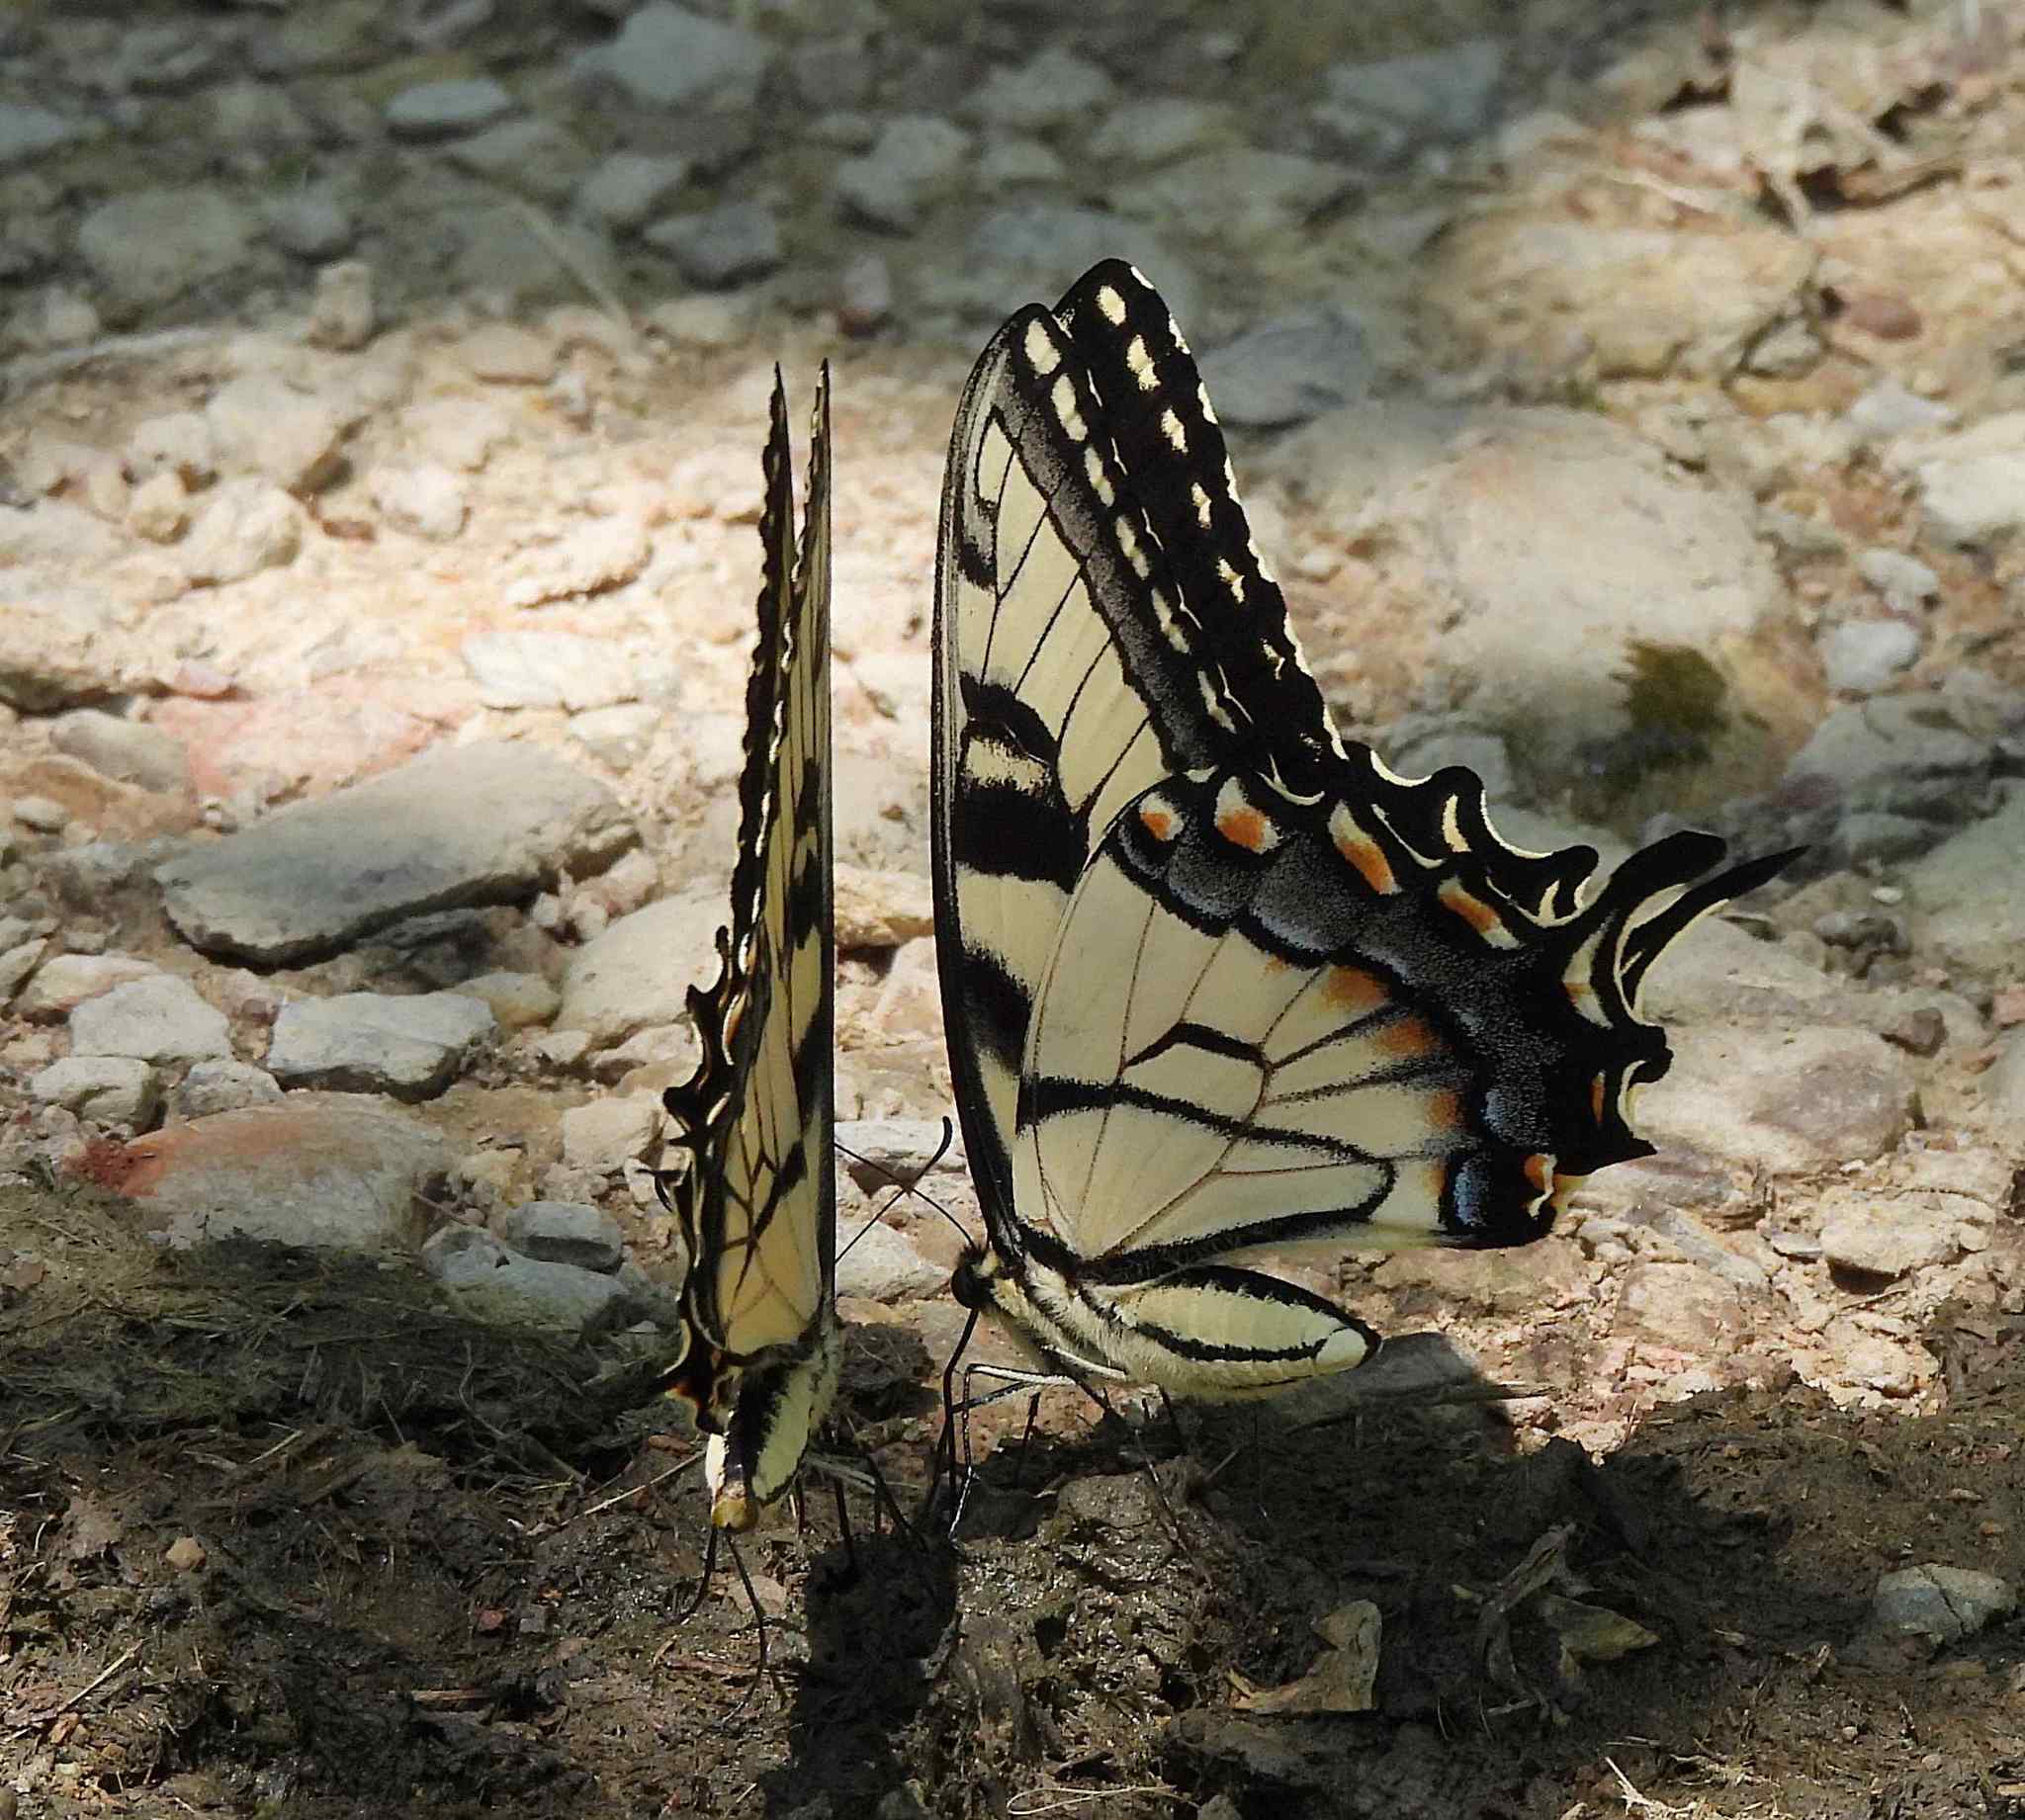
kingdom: Animalia
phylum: Arthropoda
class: Insecta
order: Lepidoptera
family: Papilionidae
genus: Papilio
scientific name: Papilio glaucus
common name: Tiger swallowtail
